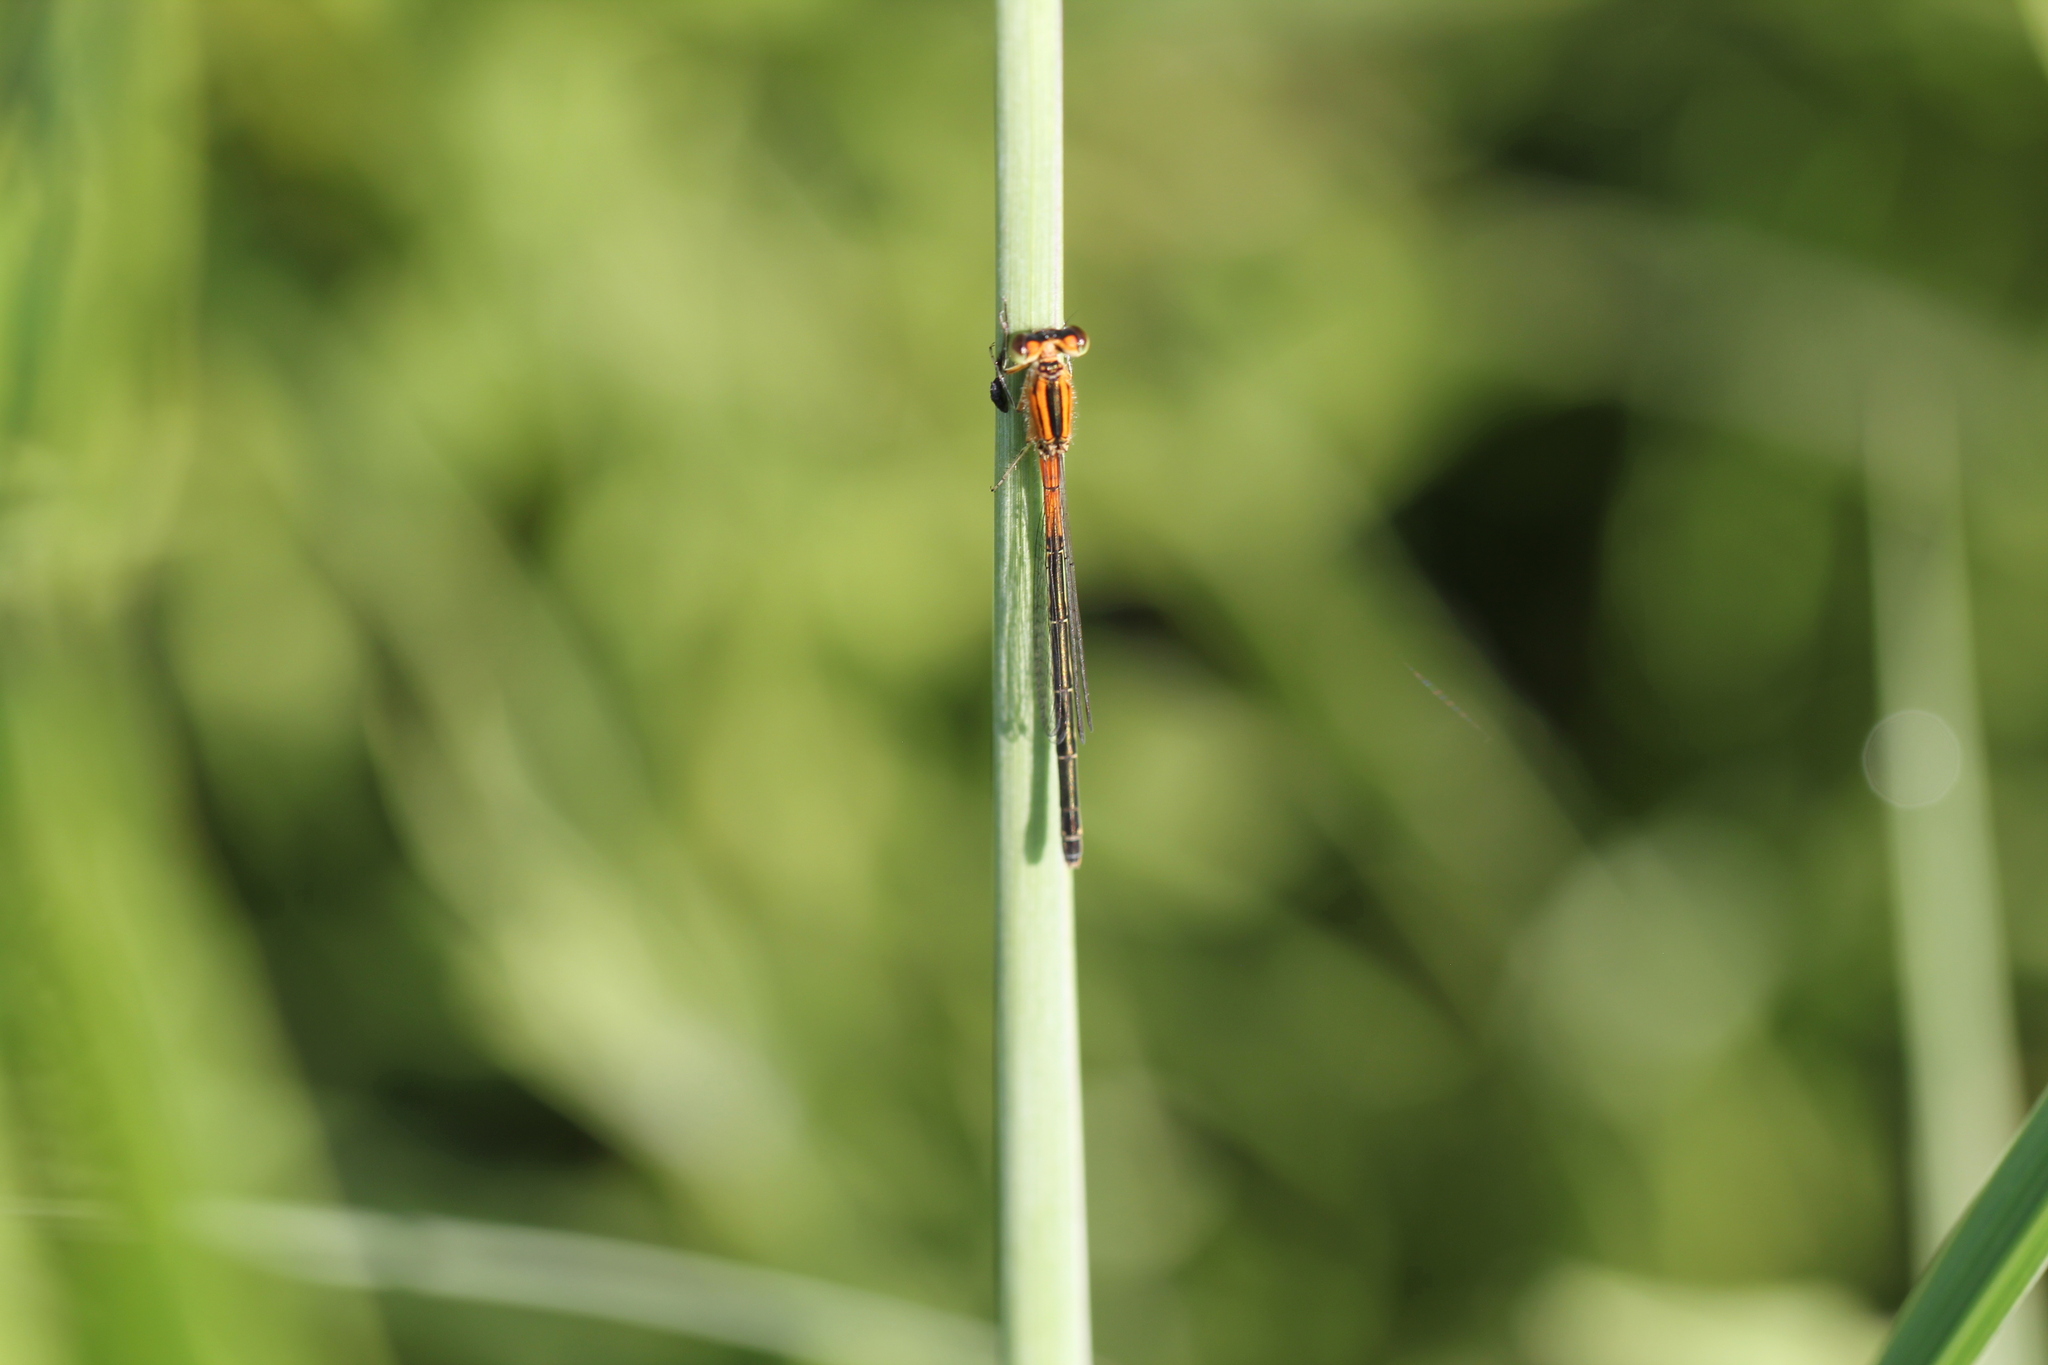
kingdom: Animalia
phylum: Arthropoda
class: Insecta
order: Odonata
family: Coenagrionidae
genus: Ischnura
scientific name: Ischnura verticalis
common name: Eastern forktail
